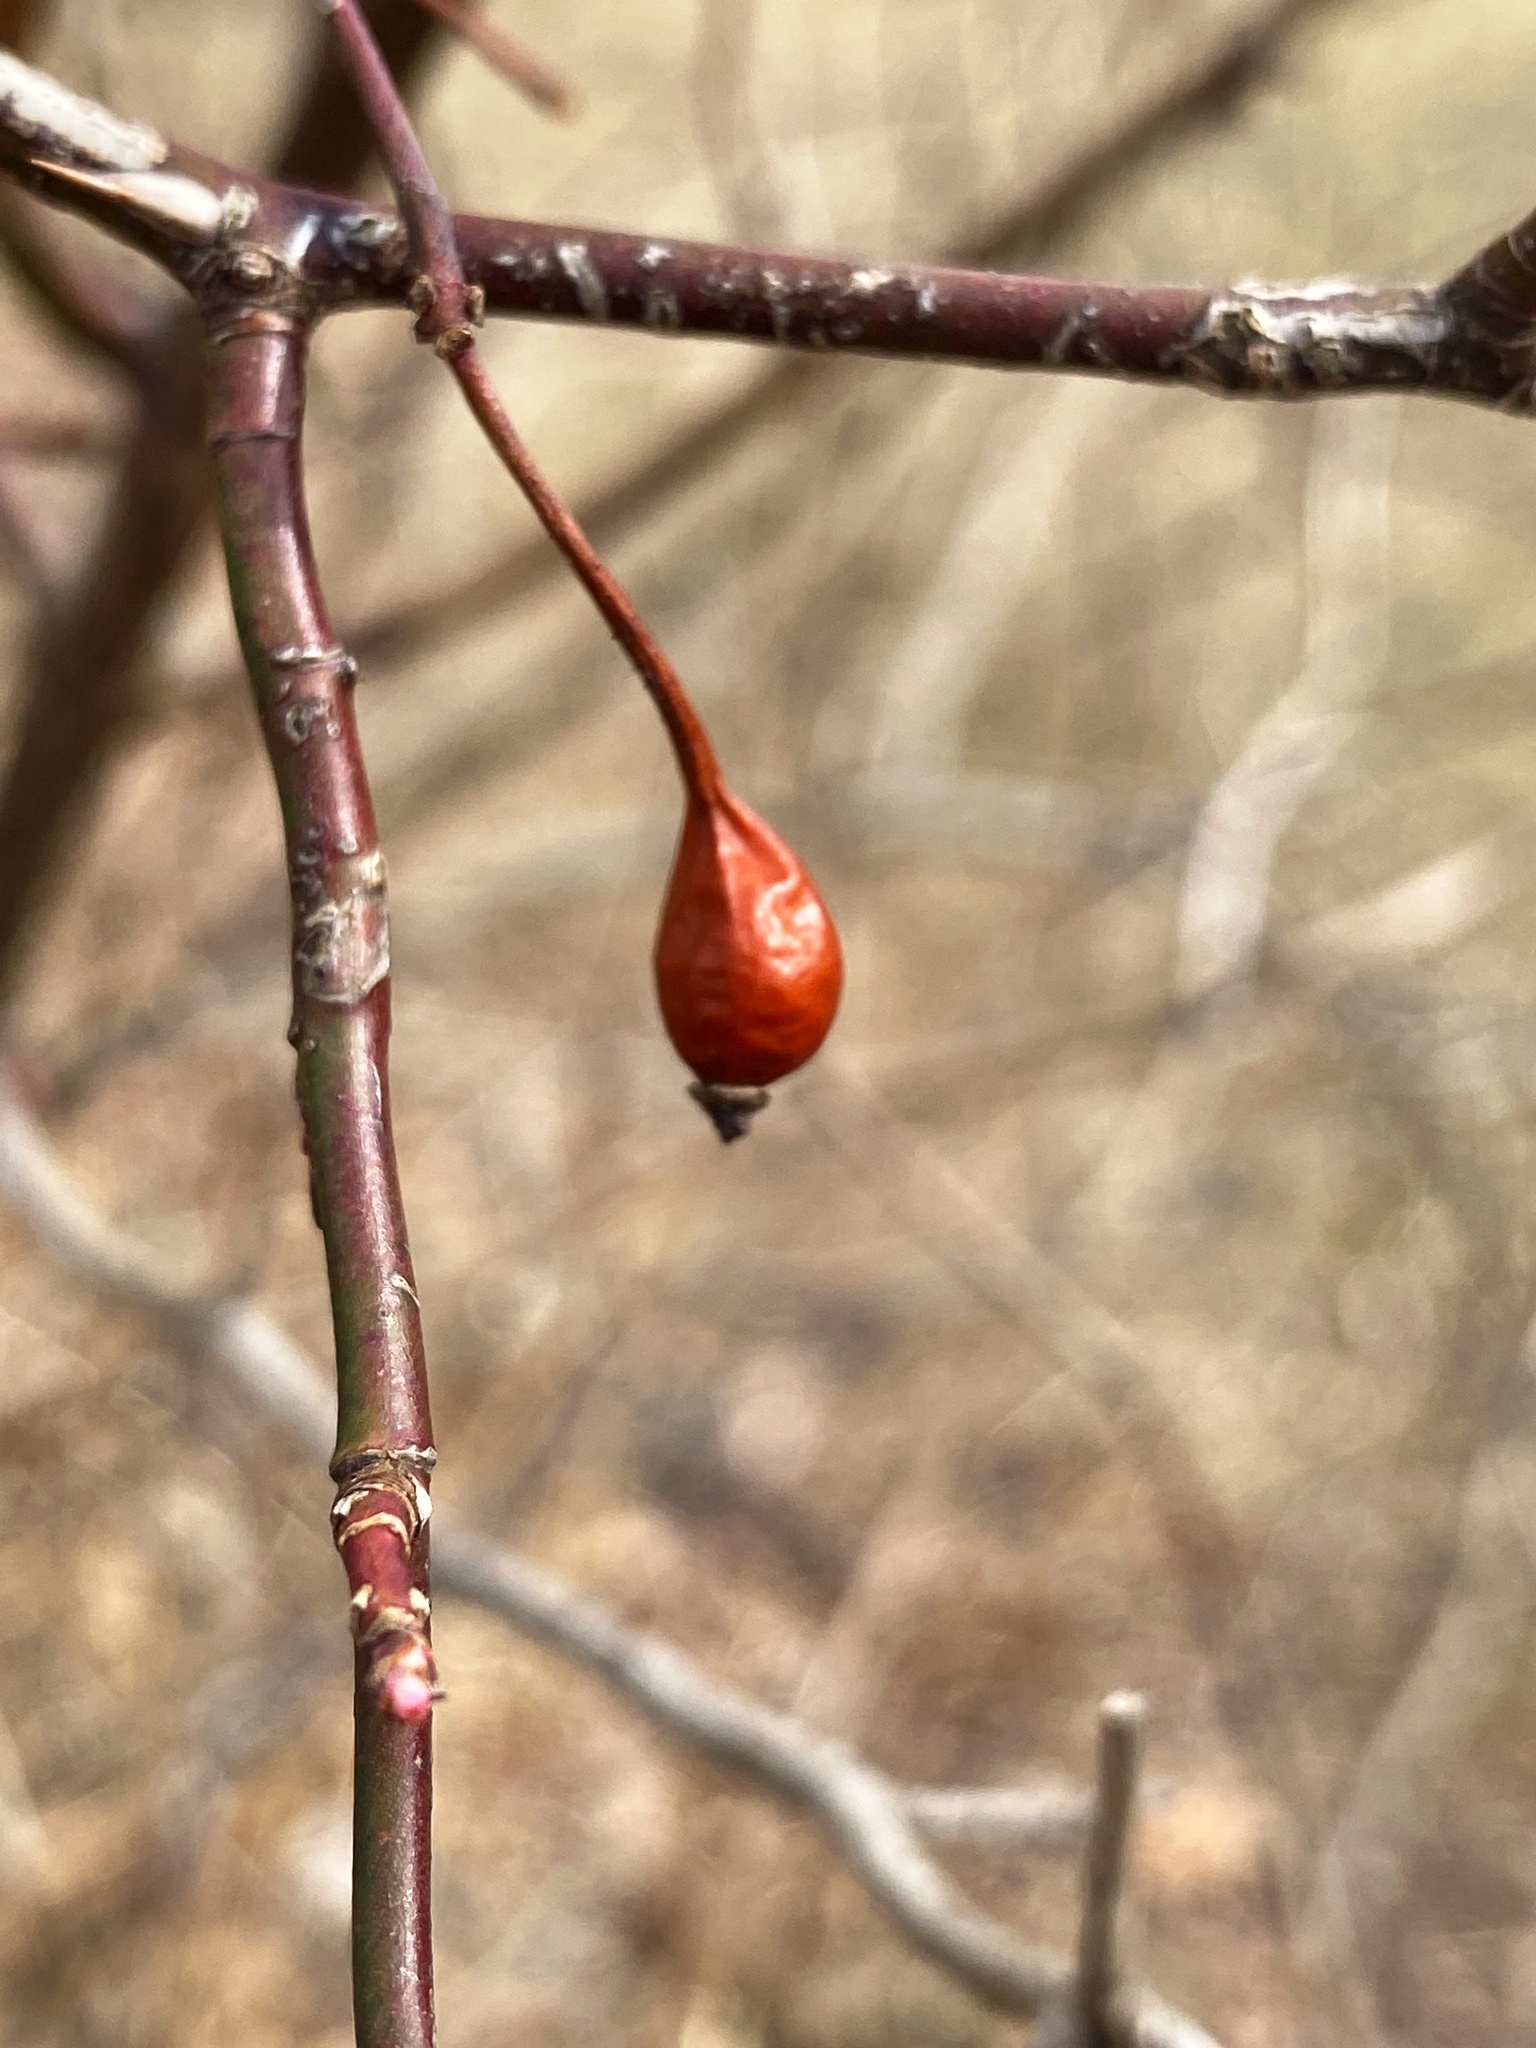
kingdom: Plantae
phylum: Tracheophyta
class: Magnoliopsida
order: Rosales
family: Rosaceae
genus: Rosa
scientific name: Rosa multiflora
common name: Multiflora rose
